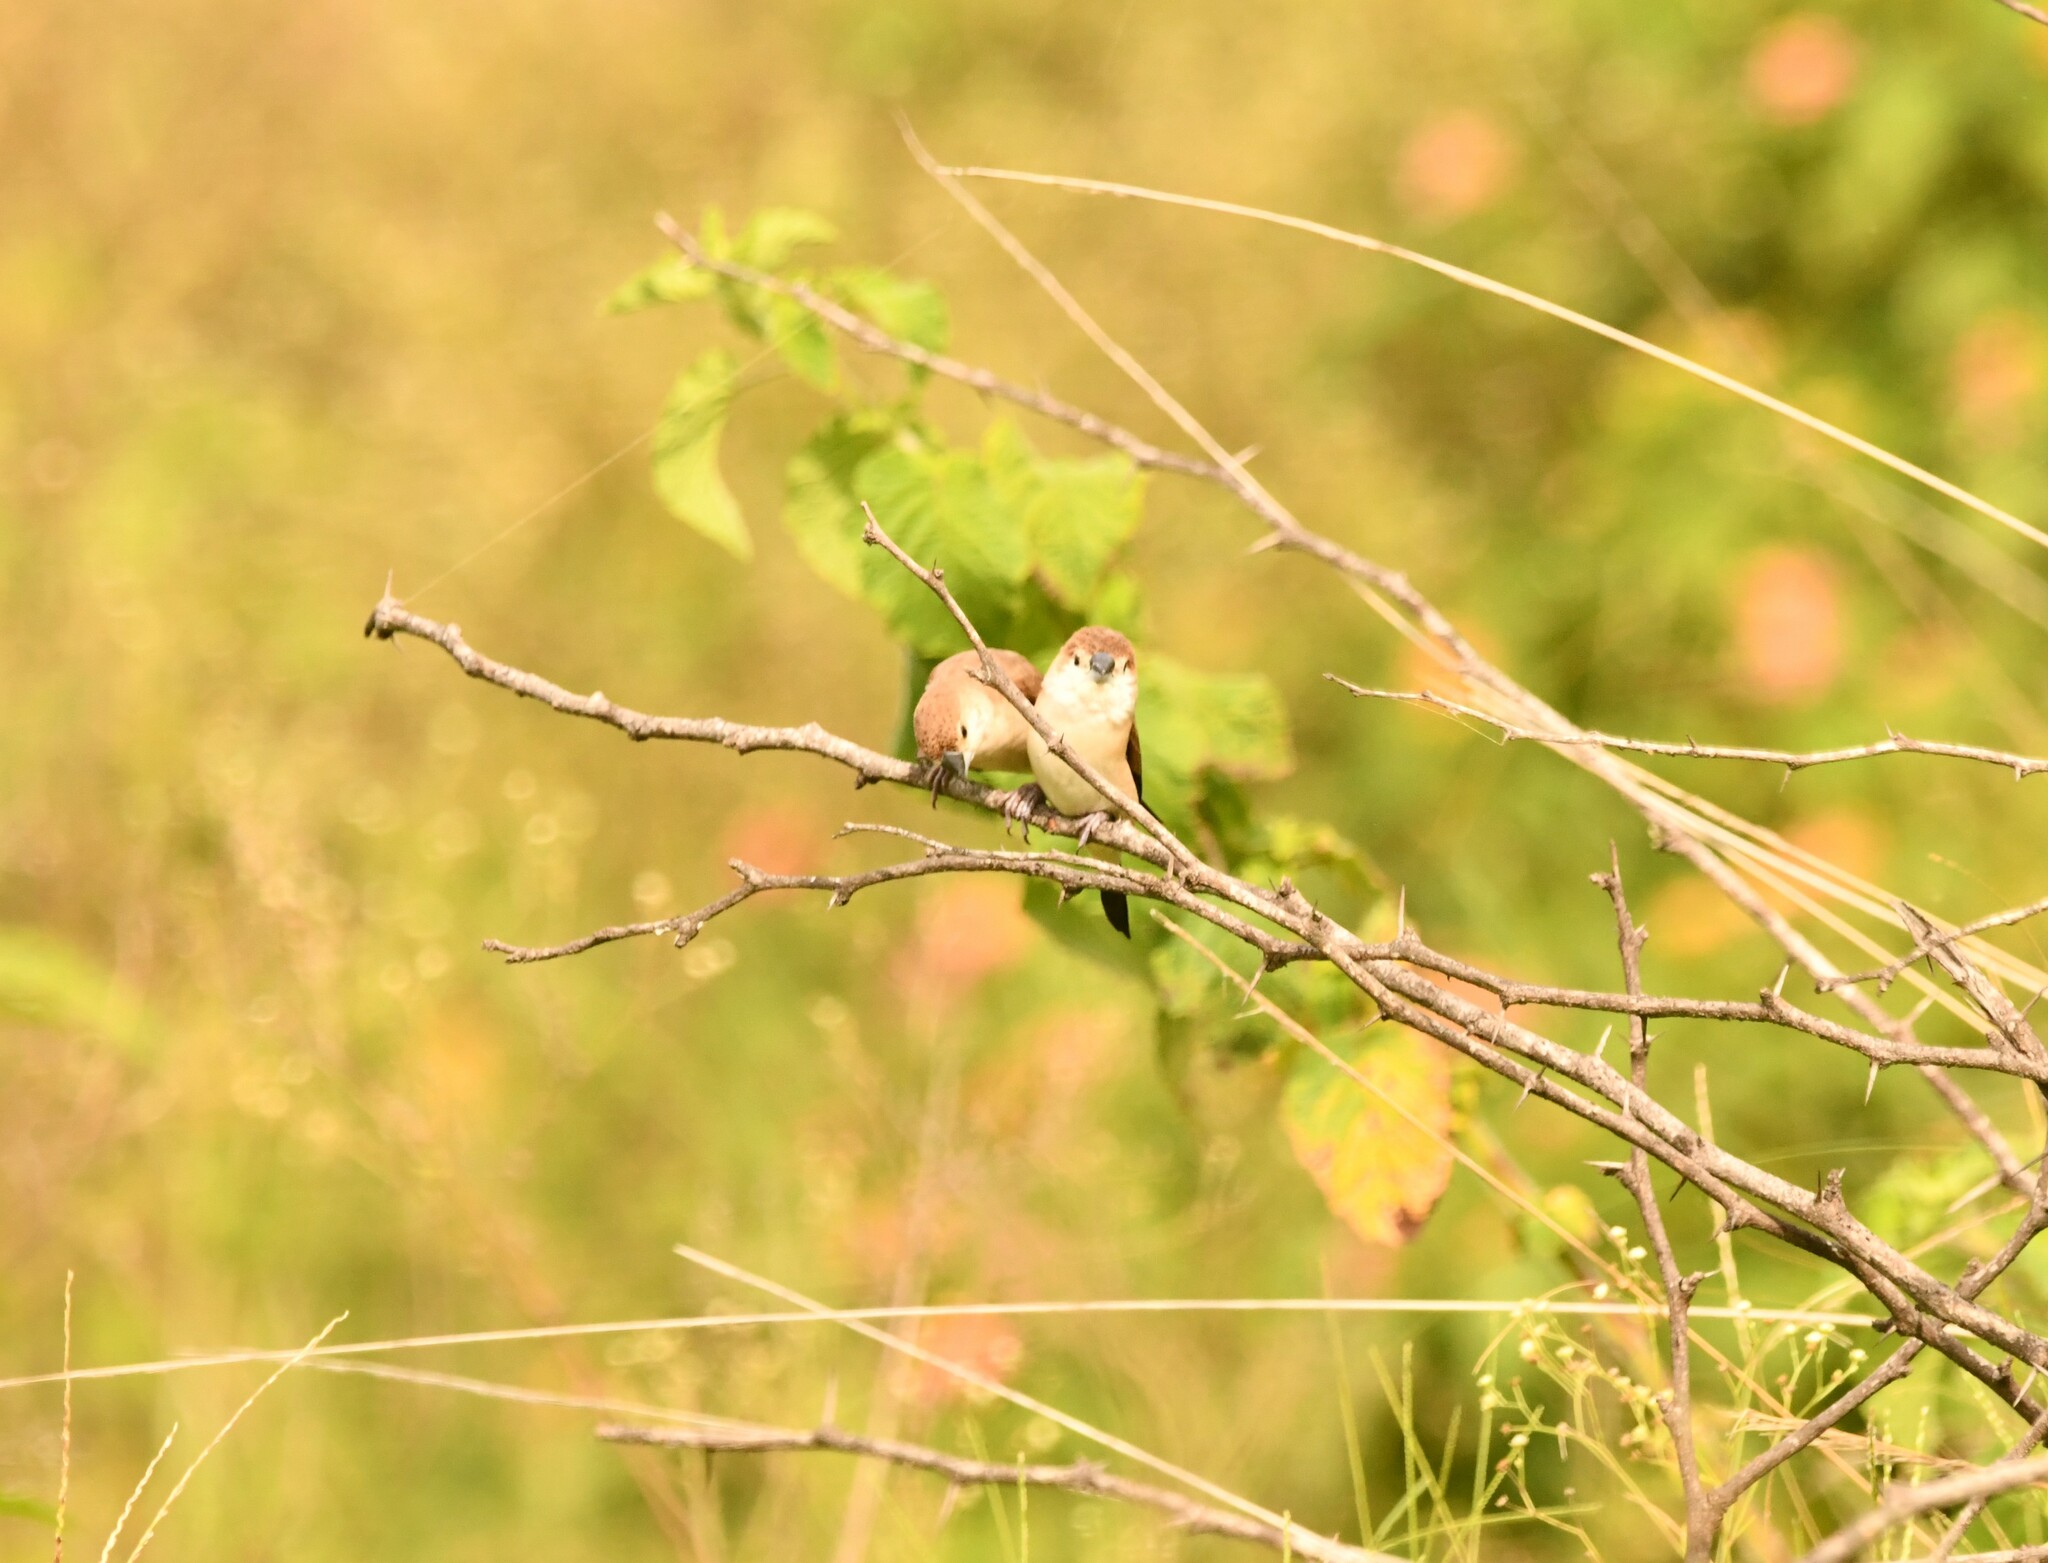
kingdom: Animalia
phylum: Chordata
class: Aves
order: Passeriformes
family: Estrildidae
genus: Euodice
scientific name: Euodice malabarica
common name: Indian silverbill
